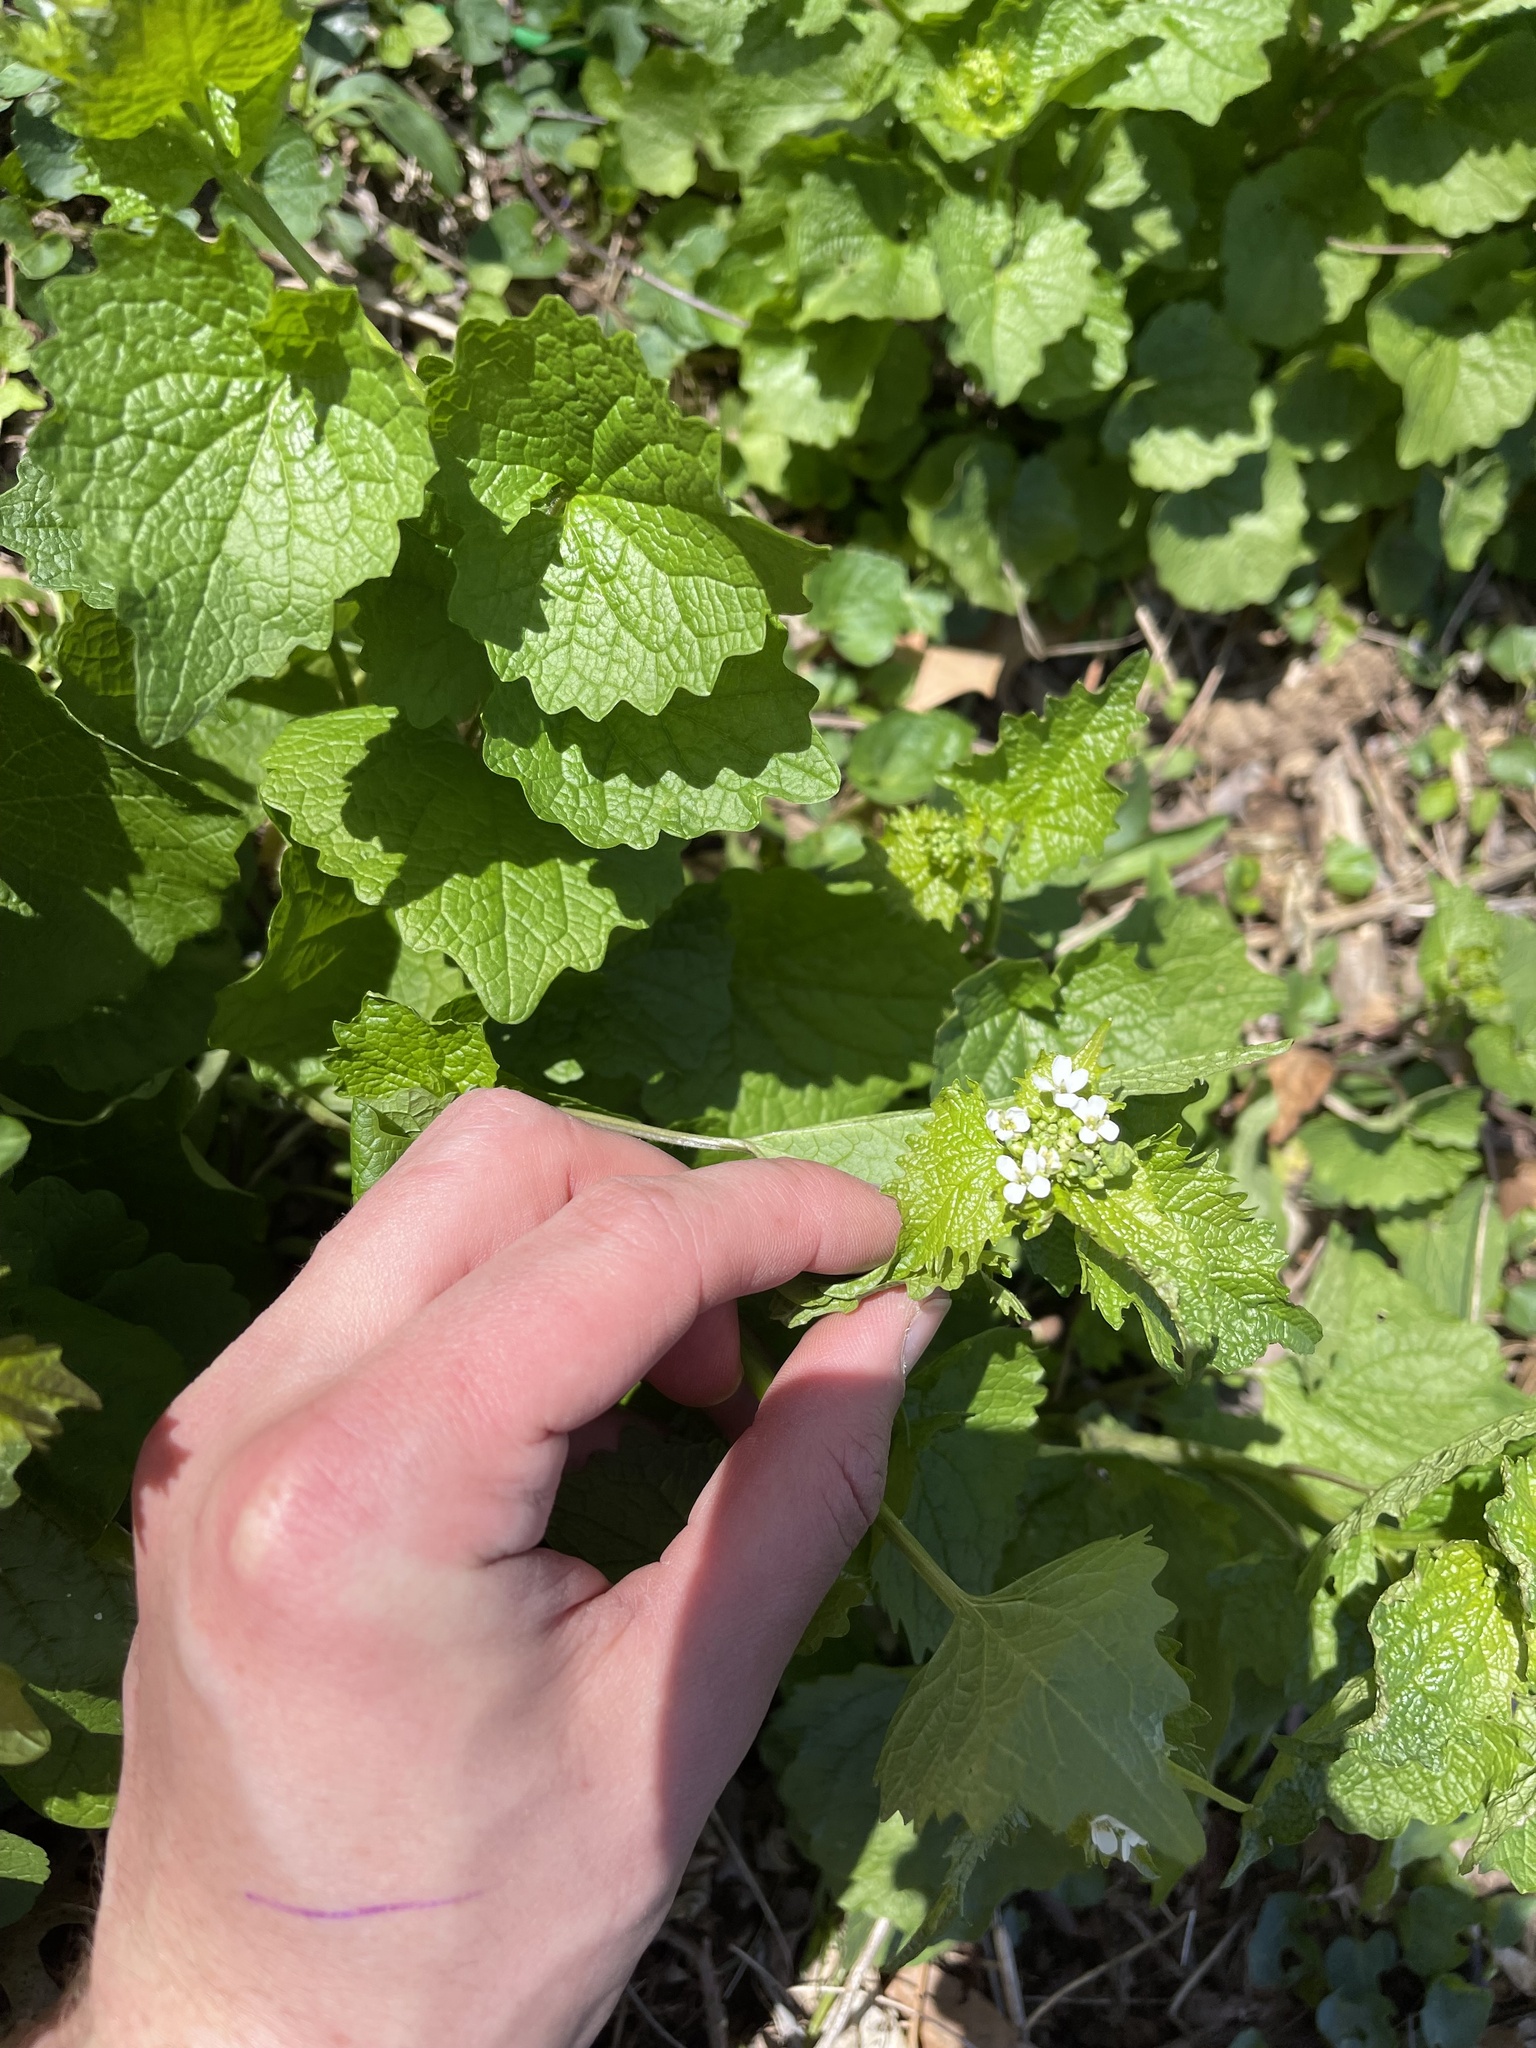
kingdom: Plantae
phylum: Tracheophyta
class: Magnoliopsida
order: Brassicales
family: Brassicaceae
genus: Alliaria
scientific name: Alliaria petiolata
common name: Garlic mustard
